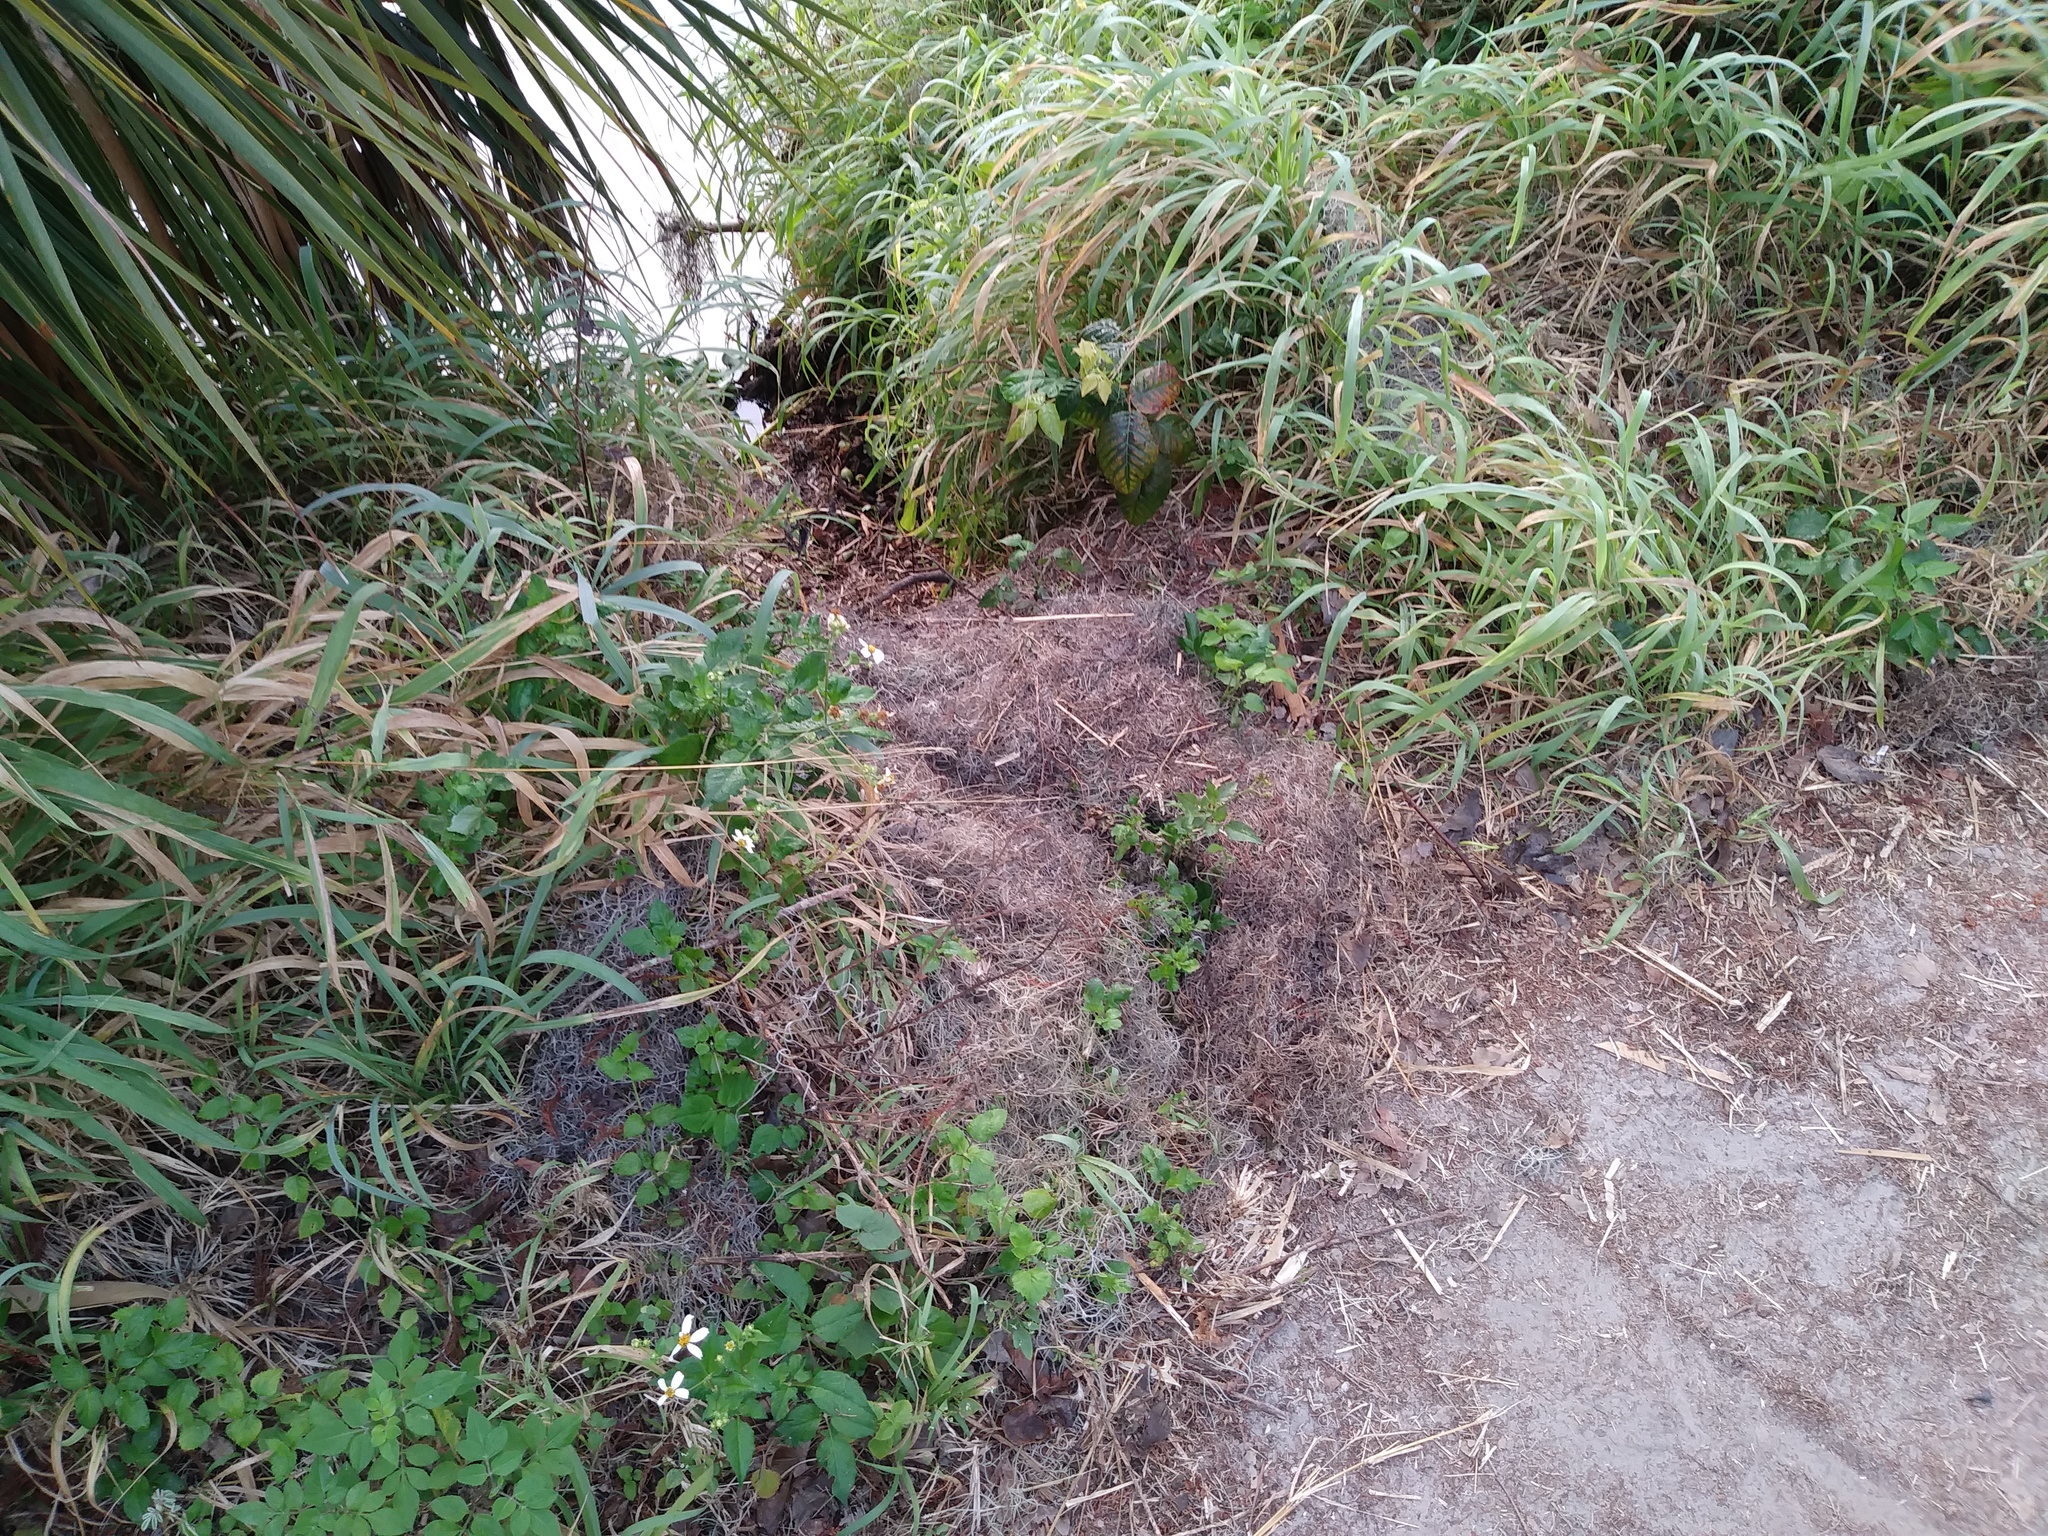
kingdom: Animalia
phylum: Chordata
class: Crocodylia
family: Alligatoridae
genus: Alligator
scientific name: Alligator mississippiensis
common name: American alligator
